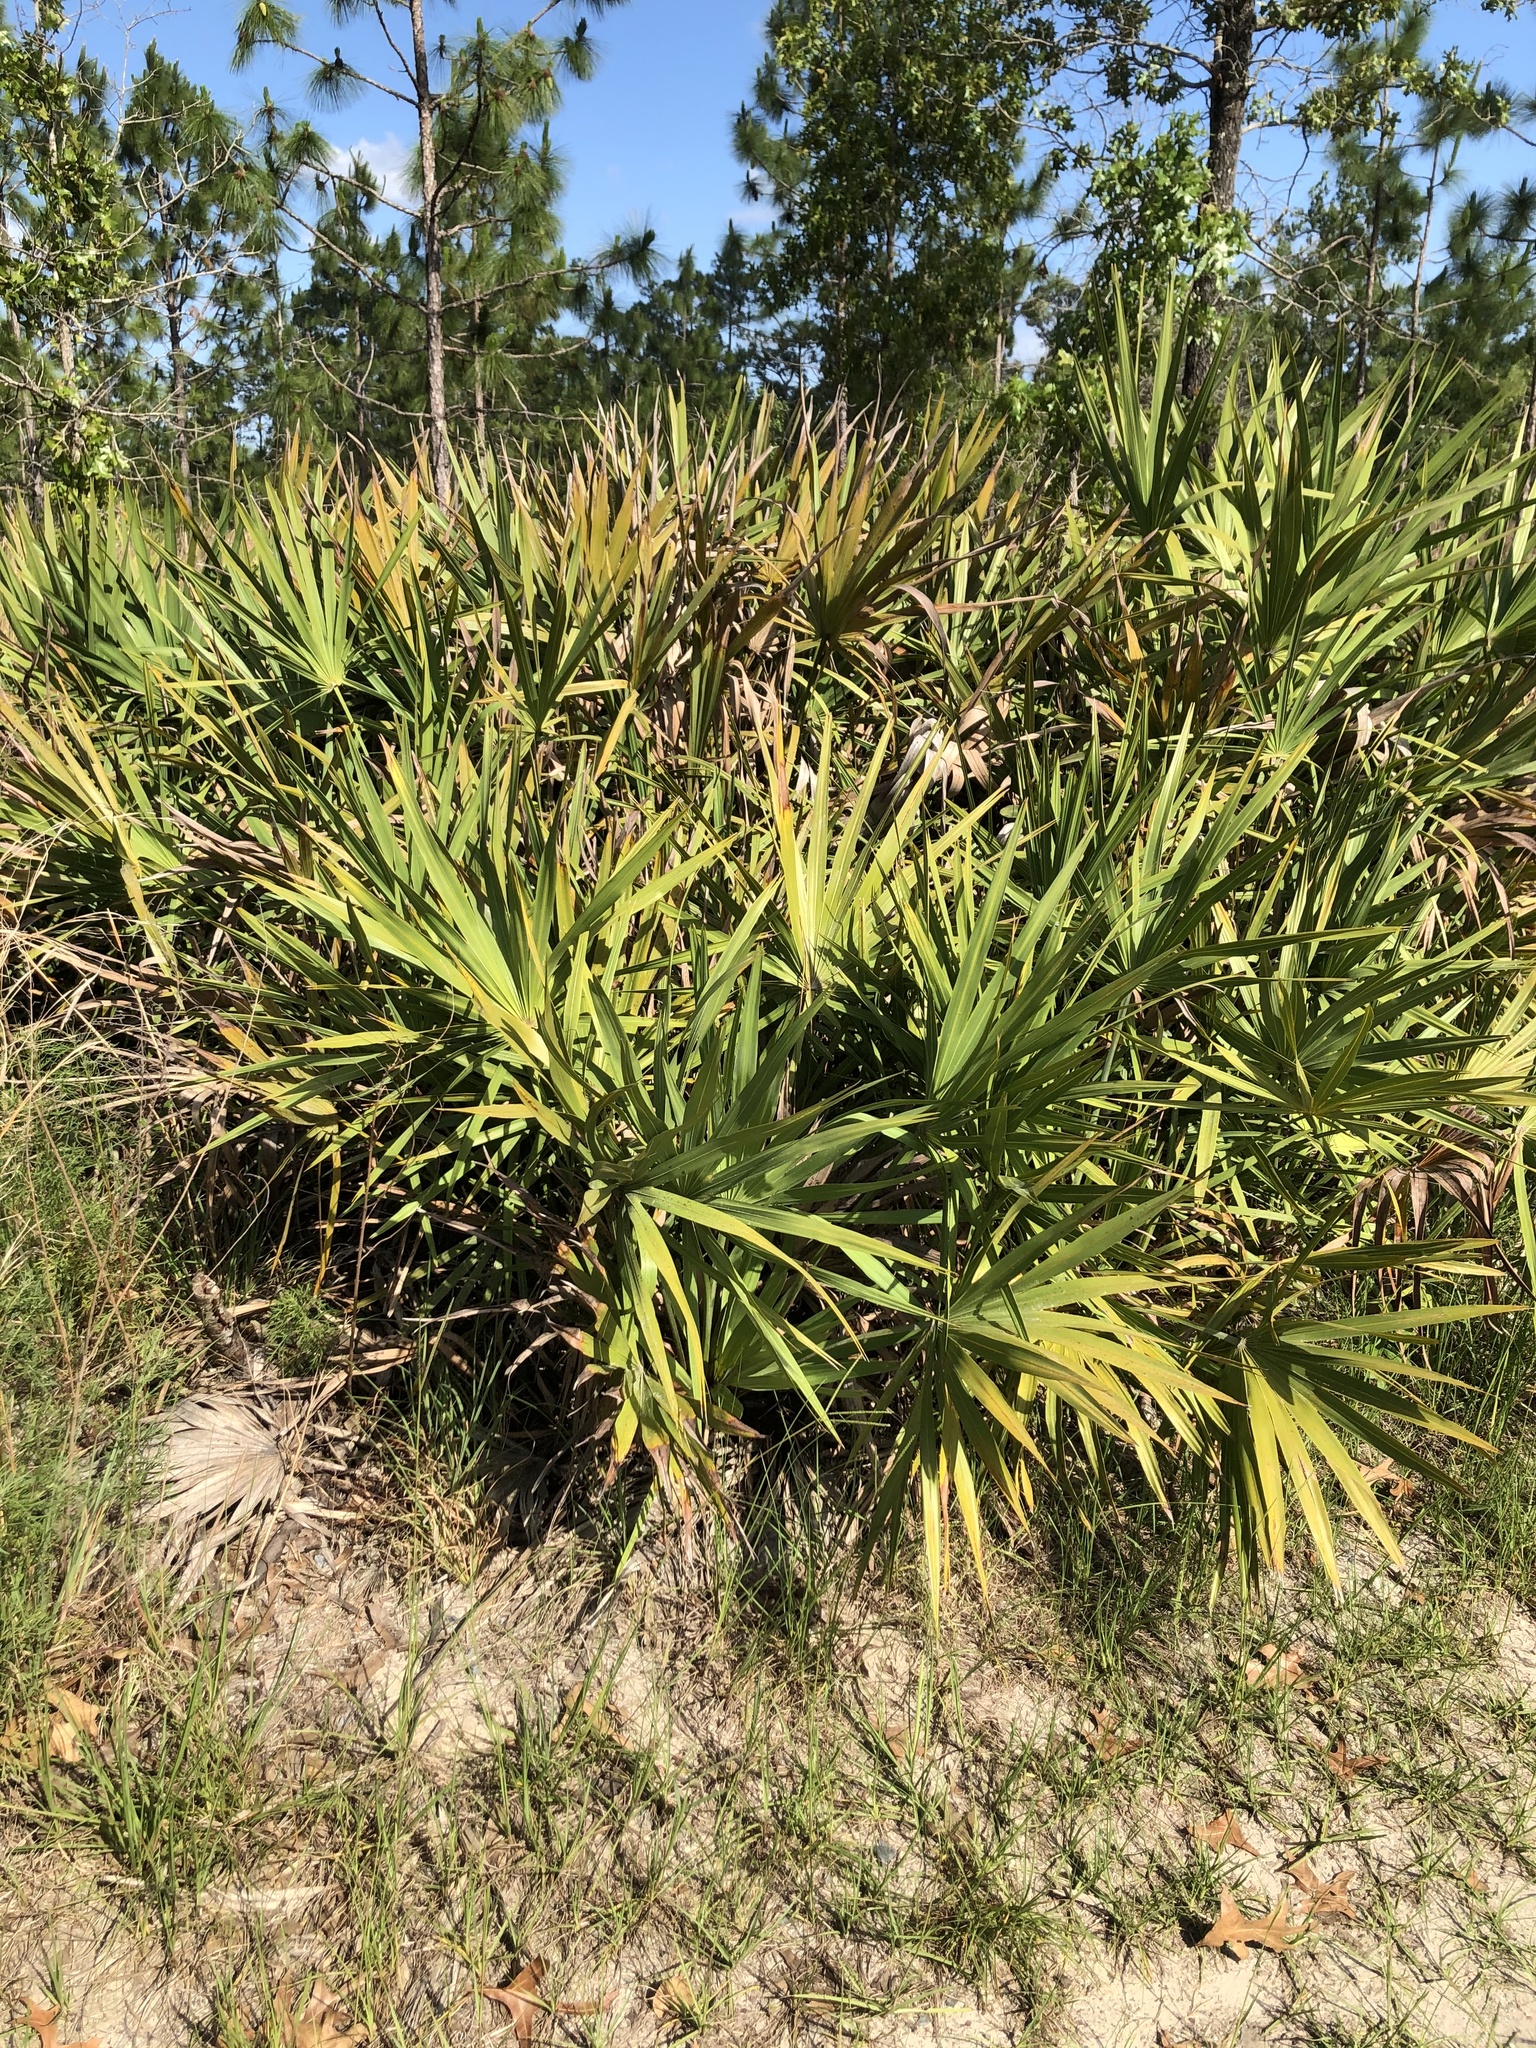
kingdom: Plantae
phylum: Tracheophyta
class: Liliopsida
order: Arecales
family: Arecaceae
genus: Serenoa
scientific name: Serenoa repens
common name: Saw-palmetto
